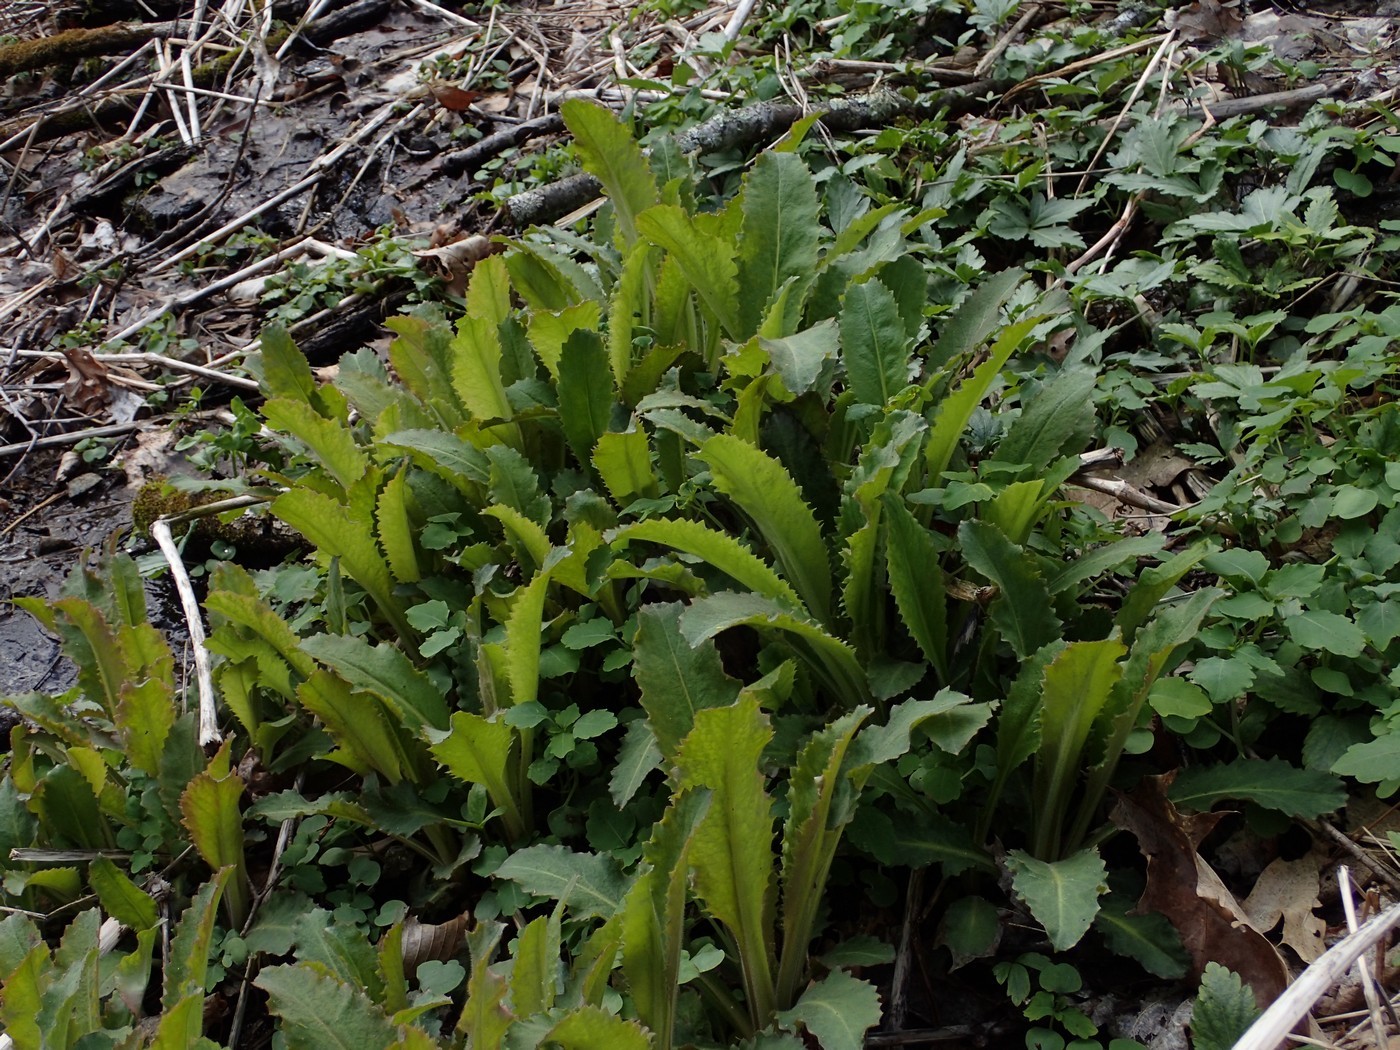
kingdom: Plantae
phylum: Tracheophyta
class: Magnoliopsida
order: Saxifragales
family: Saxifragaceae
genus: Micranthes
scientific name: Micranthes micranthidifolia
